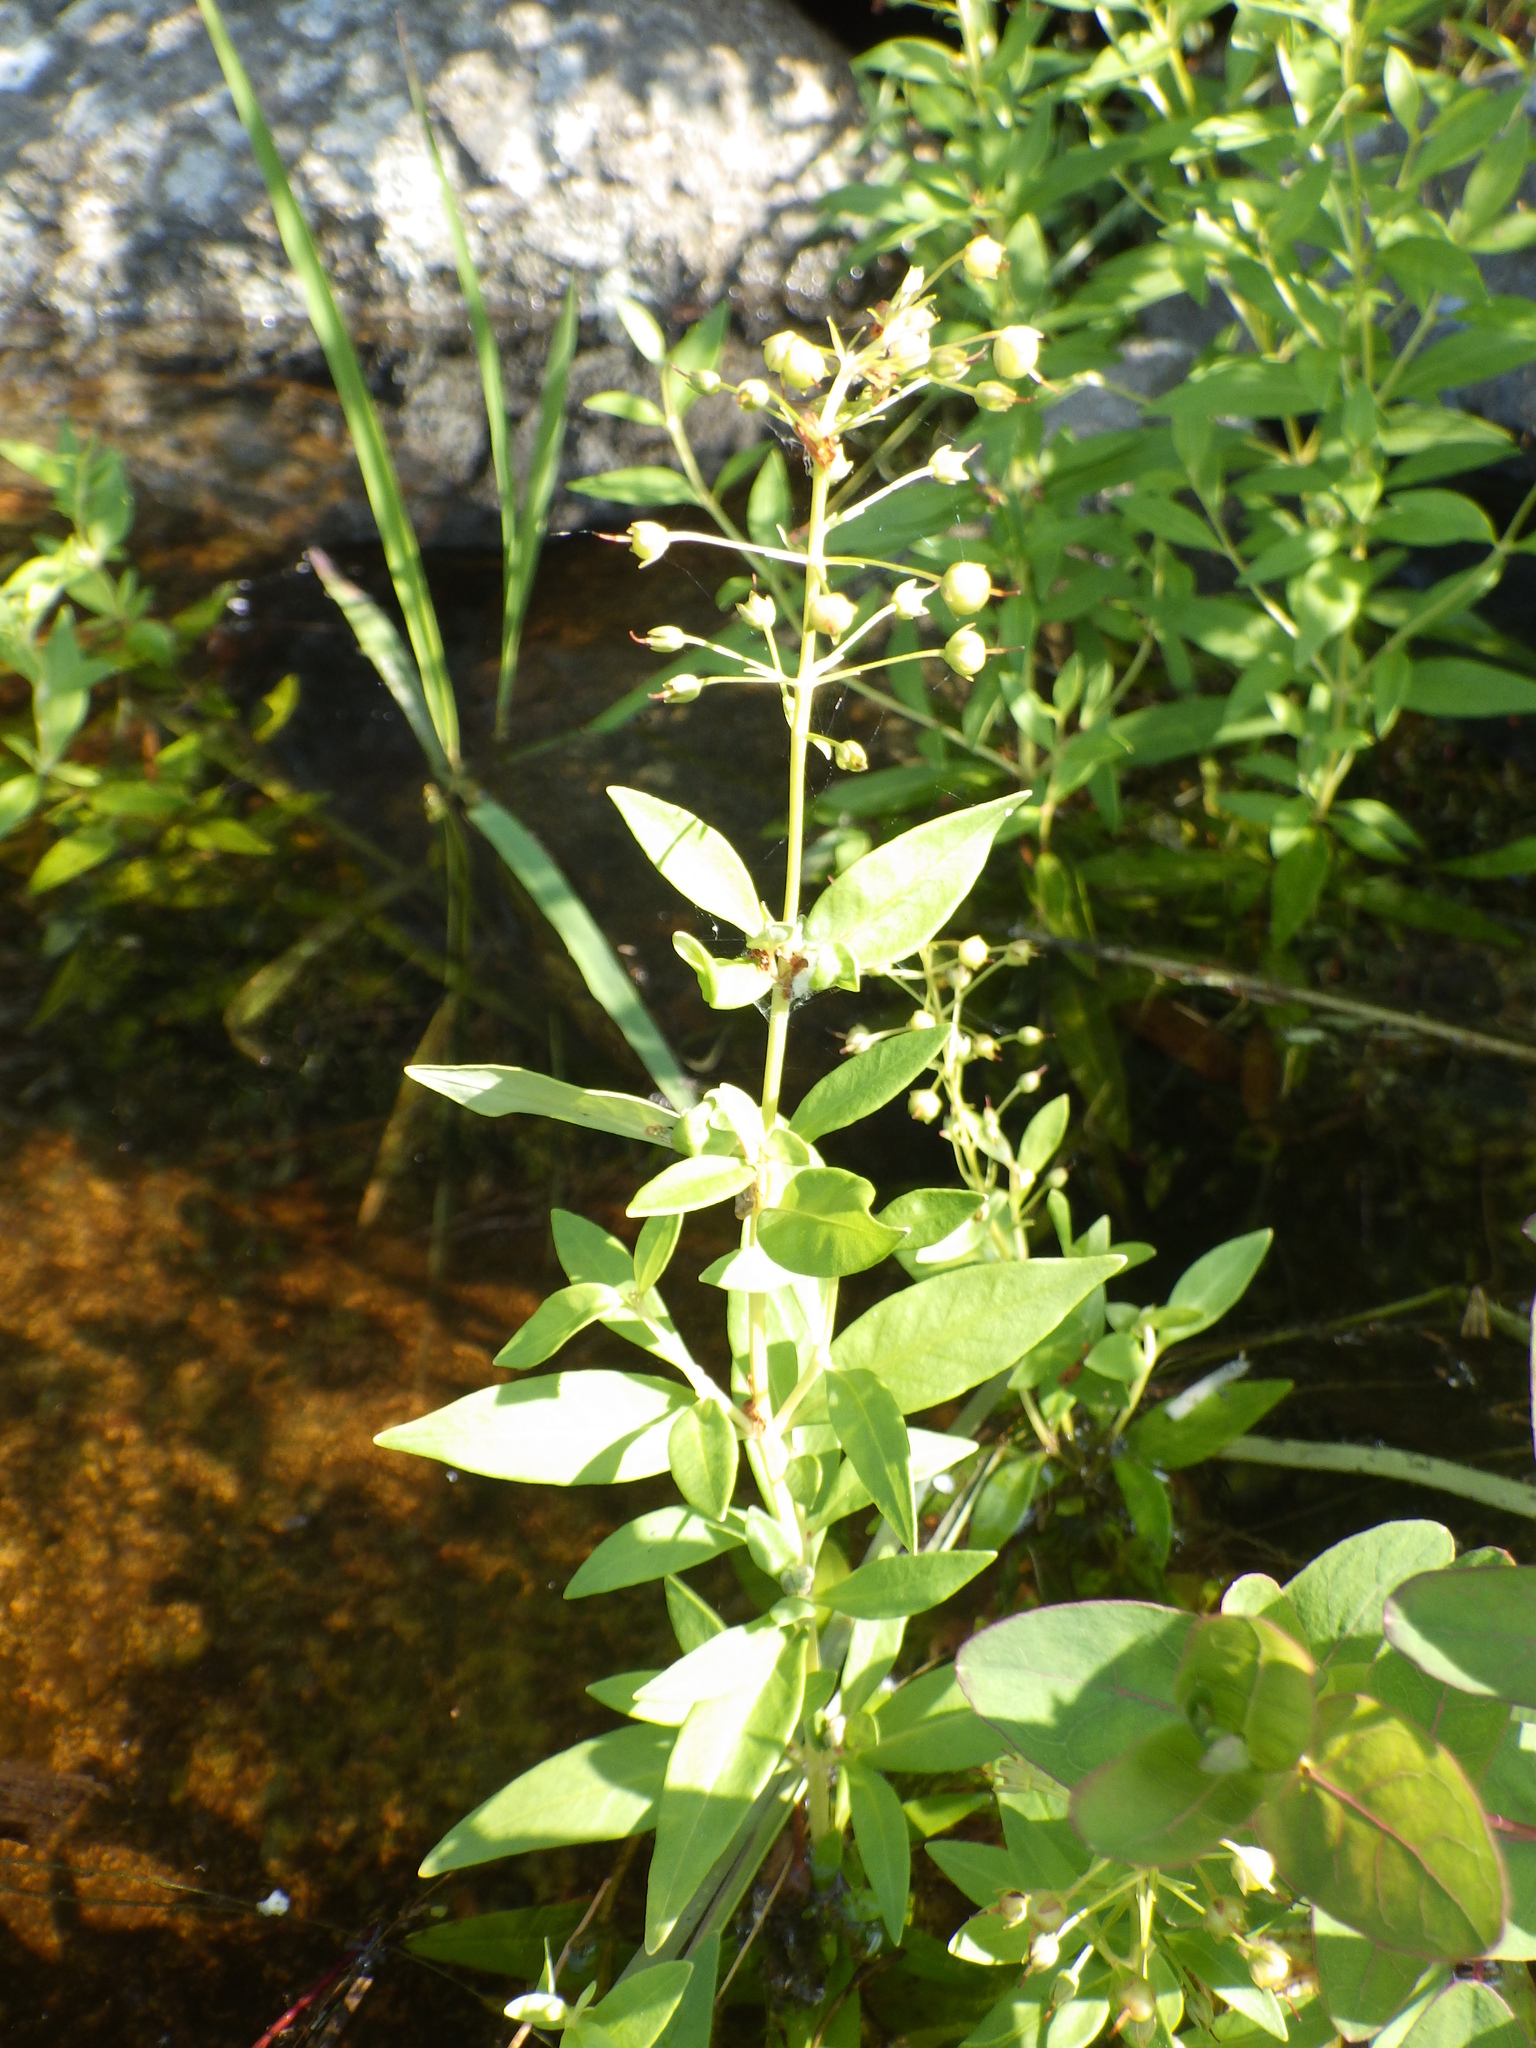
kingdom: Plantae
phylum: Tracheophyta
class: Magnoliopsida
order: Ericales
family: Primulaceae
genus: Lysimachia
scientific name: Lysimachia terrestris
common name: Lake loosestrife
